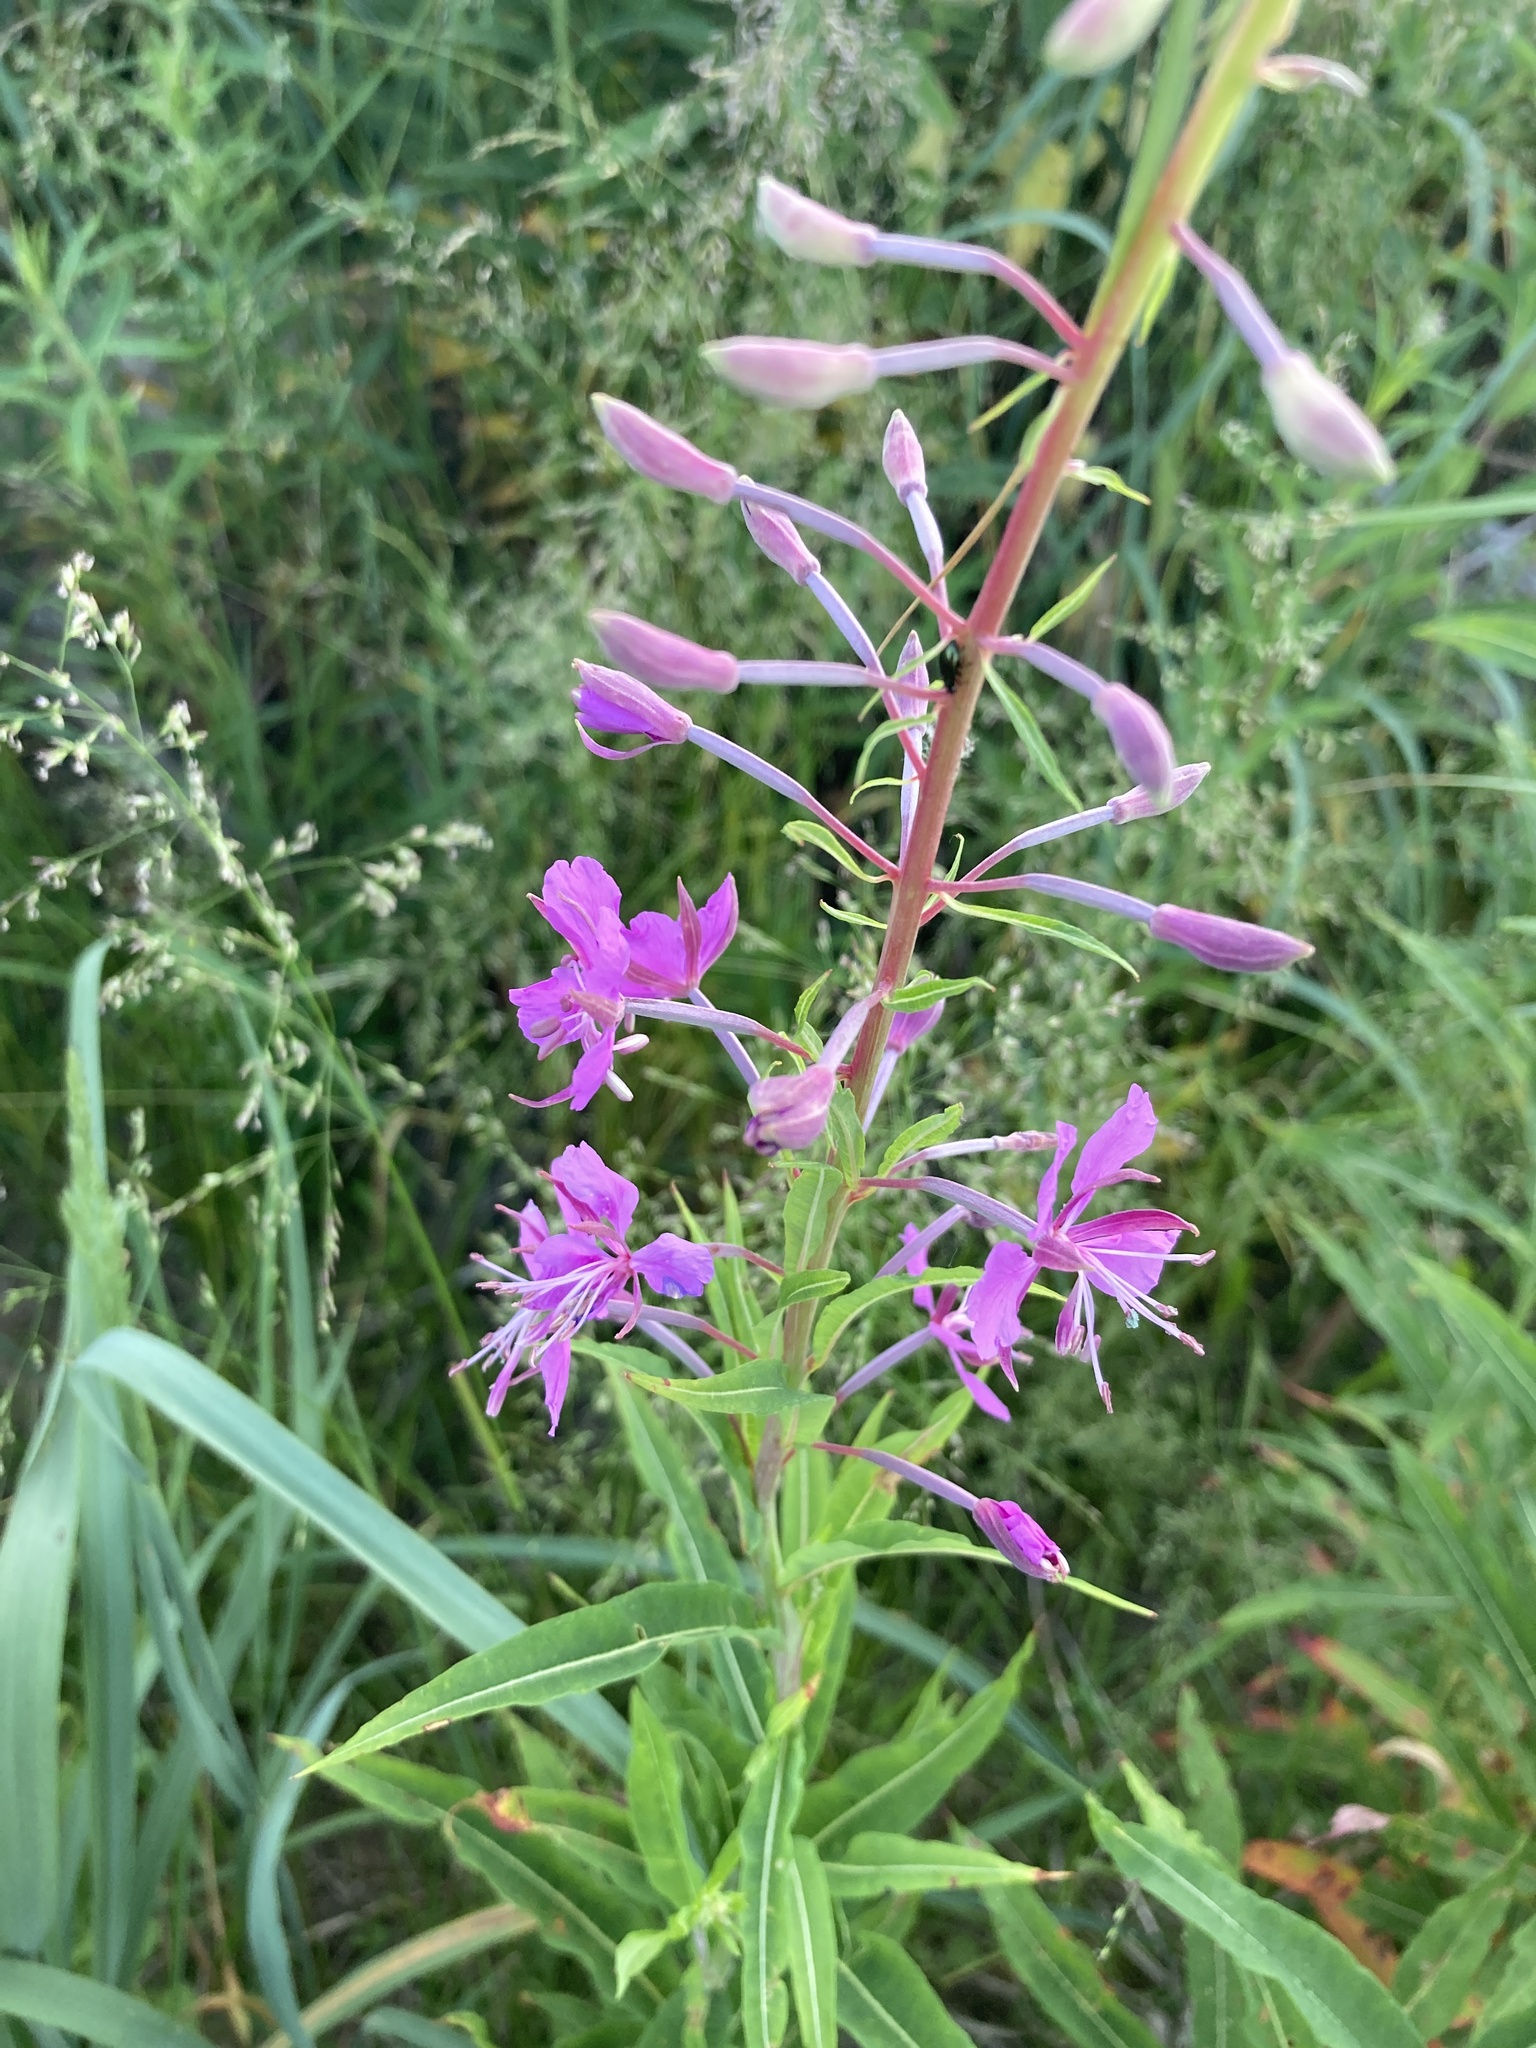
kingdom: Plantae
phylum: Tracheophyta
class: Magnoliopsida
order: Myrtales
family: Onagraceae
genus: Chamaenerion
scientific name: Chamaenerion angustifolium
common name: Fireweed
